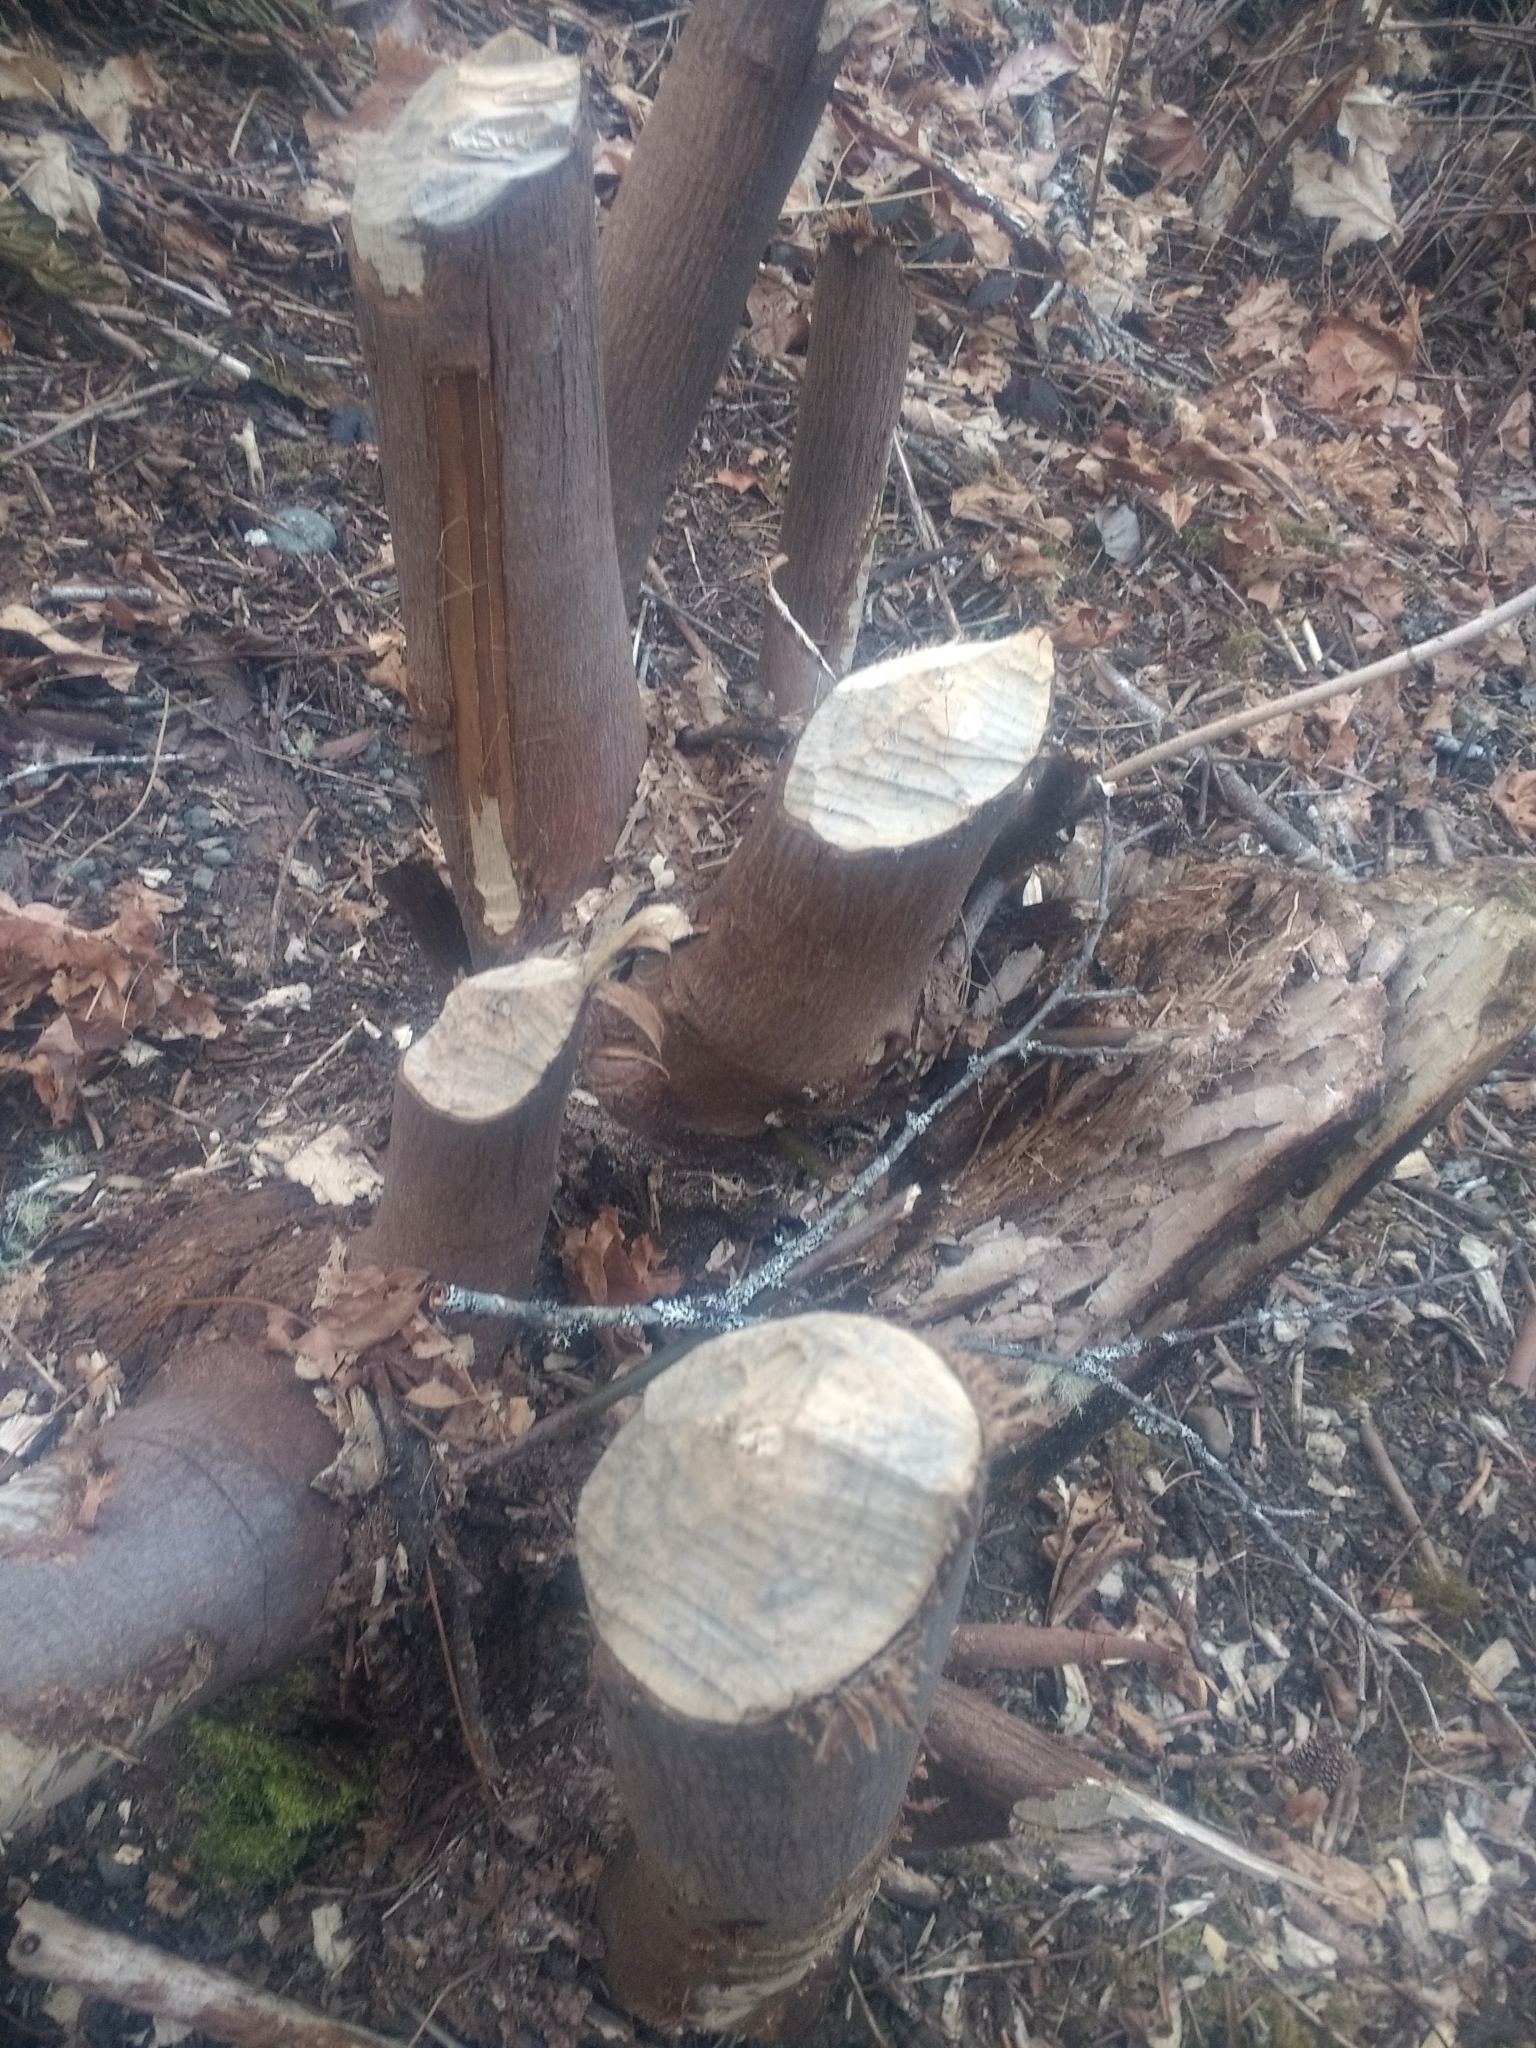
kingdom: Animalia
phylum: Chordata
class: Mammalia
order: Rodentia
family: Castoridae
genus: Castor
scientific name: Castor canadensis
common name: American beaver
